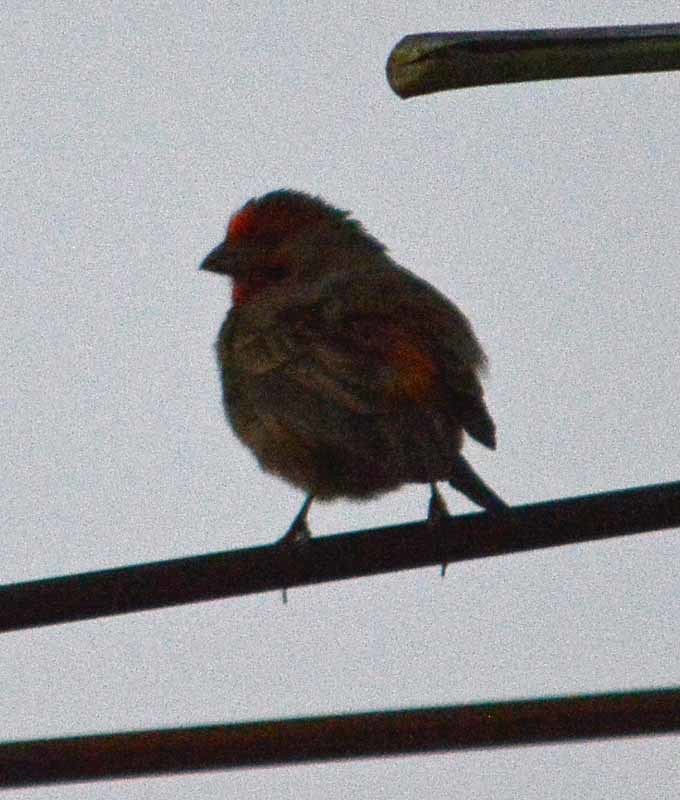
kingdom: Animalia
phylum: Chordata
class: Aves
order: Passeriformes
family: Fringillidae
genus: Haemorhous
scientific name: Haemorhous mexicanus
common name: House finch
